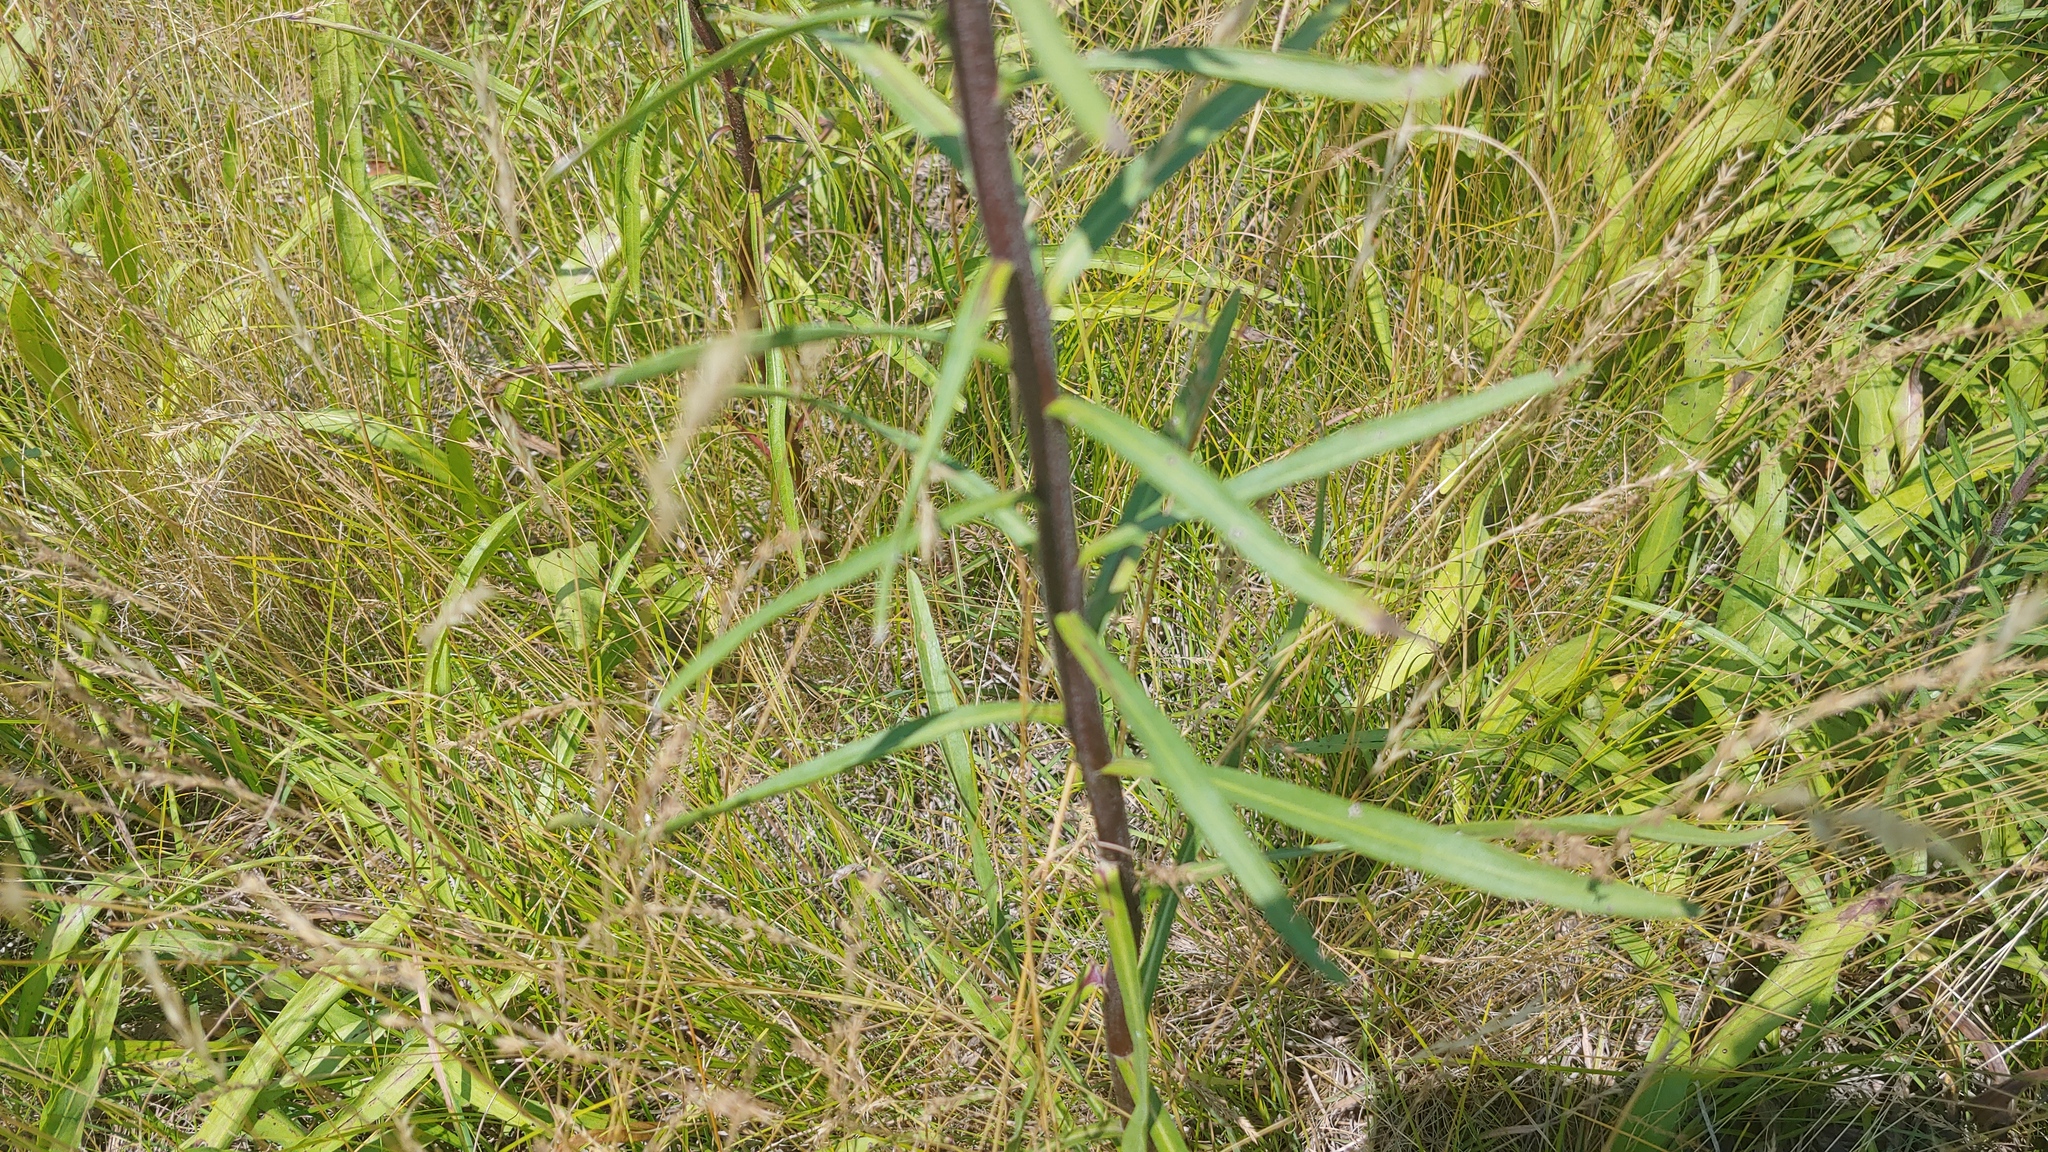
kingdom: Plantae
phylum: Tracheophyta
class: Magnoliopsida
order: Asterales
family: Asteraceae
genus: Liatris
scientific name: Liatris scariosa
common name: Northern gayfeather
